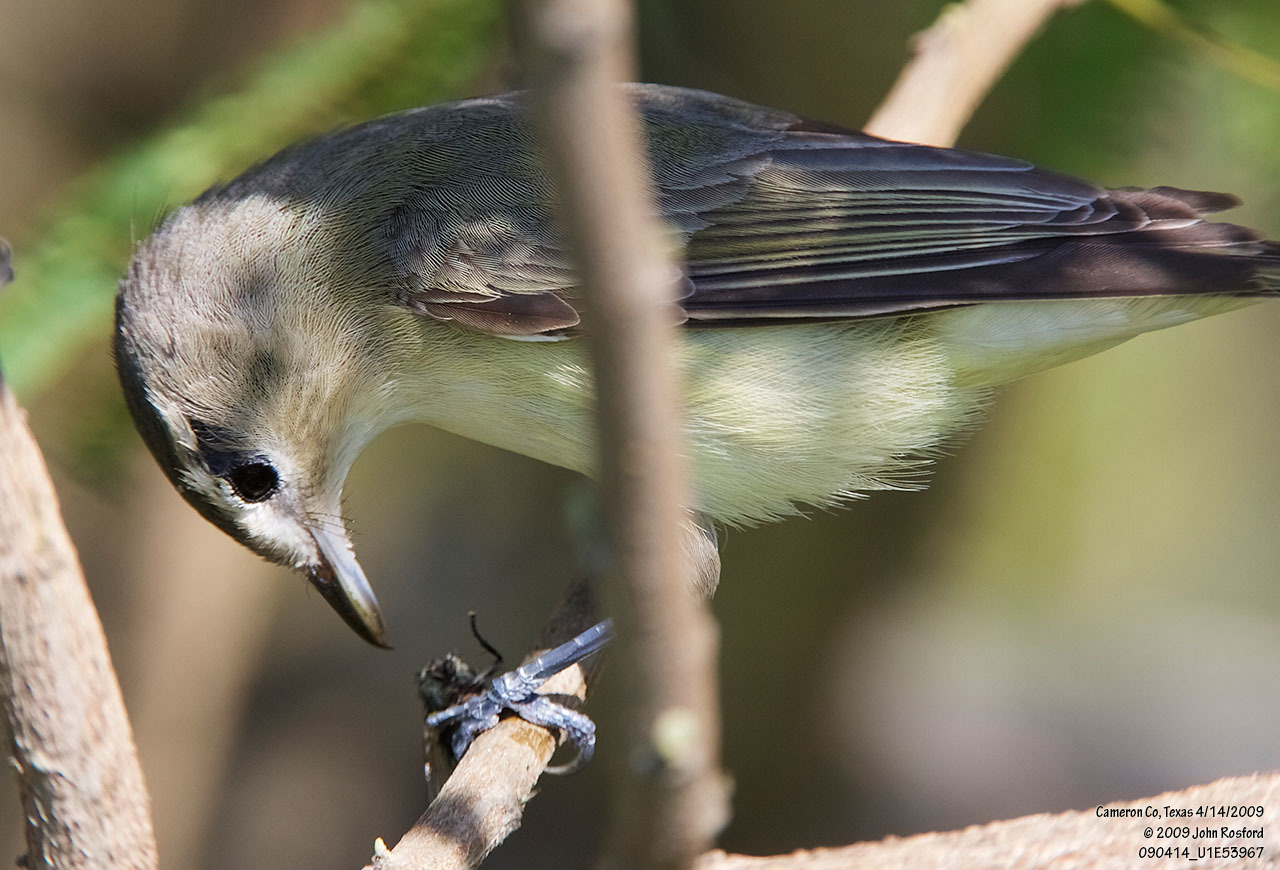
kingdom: Animalia
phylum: Chordata
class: Aves
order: Passeriformes
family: Vireonidae
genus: Vireo
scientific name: Vireo gilvus
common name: Warbling vireo
